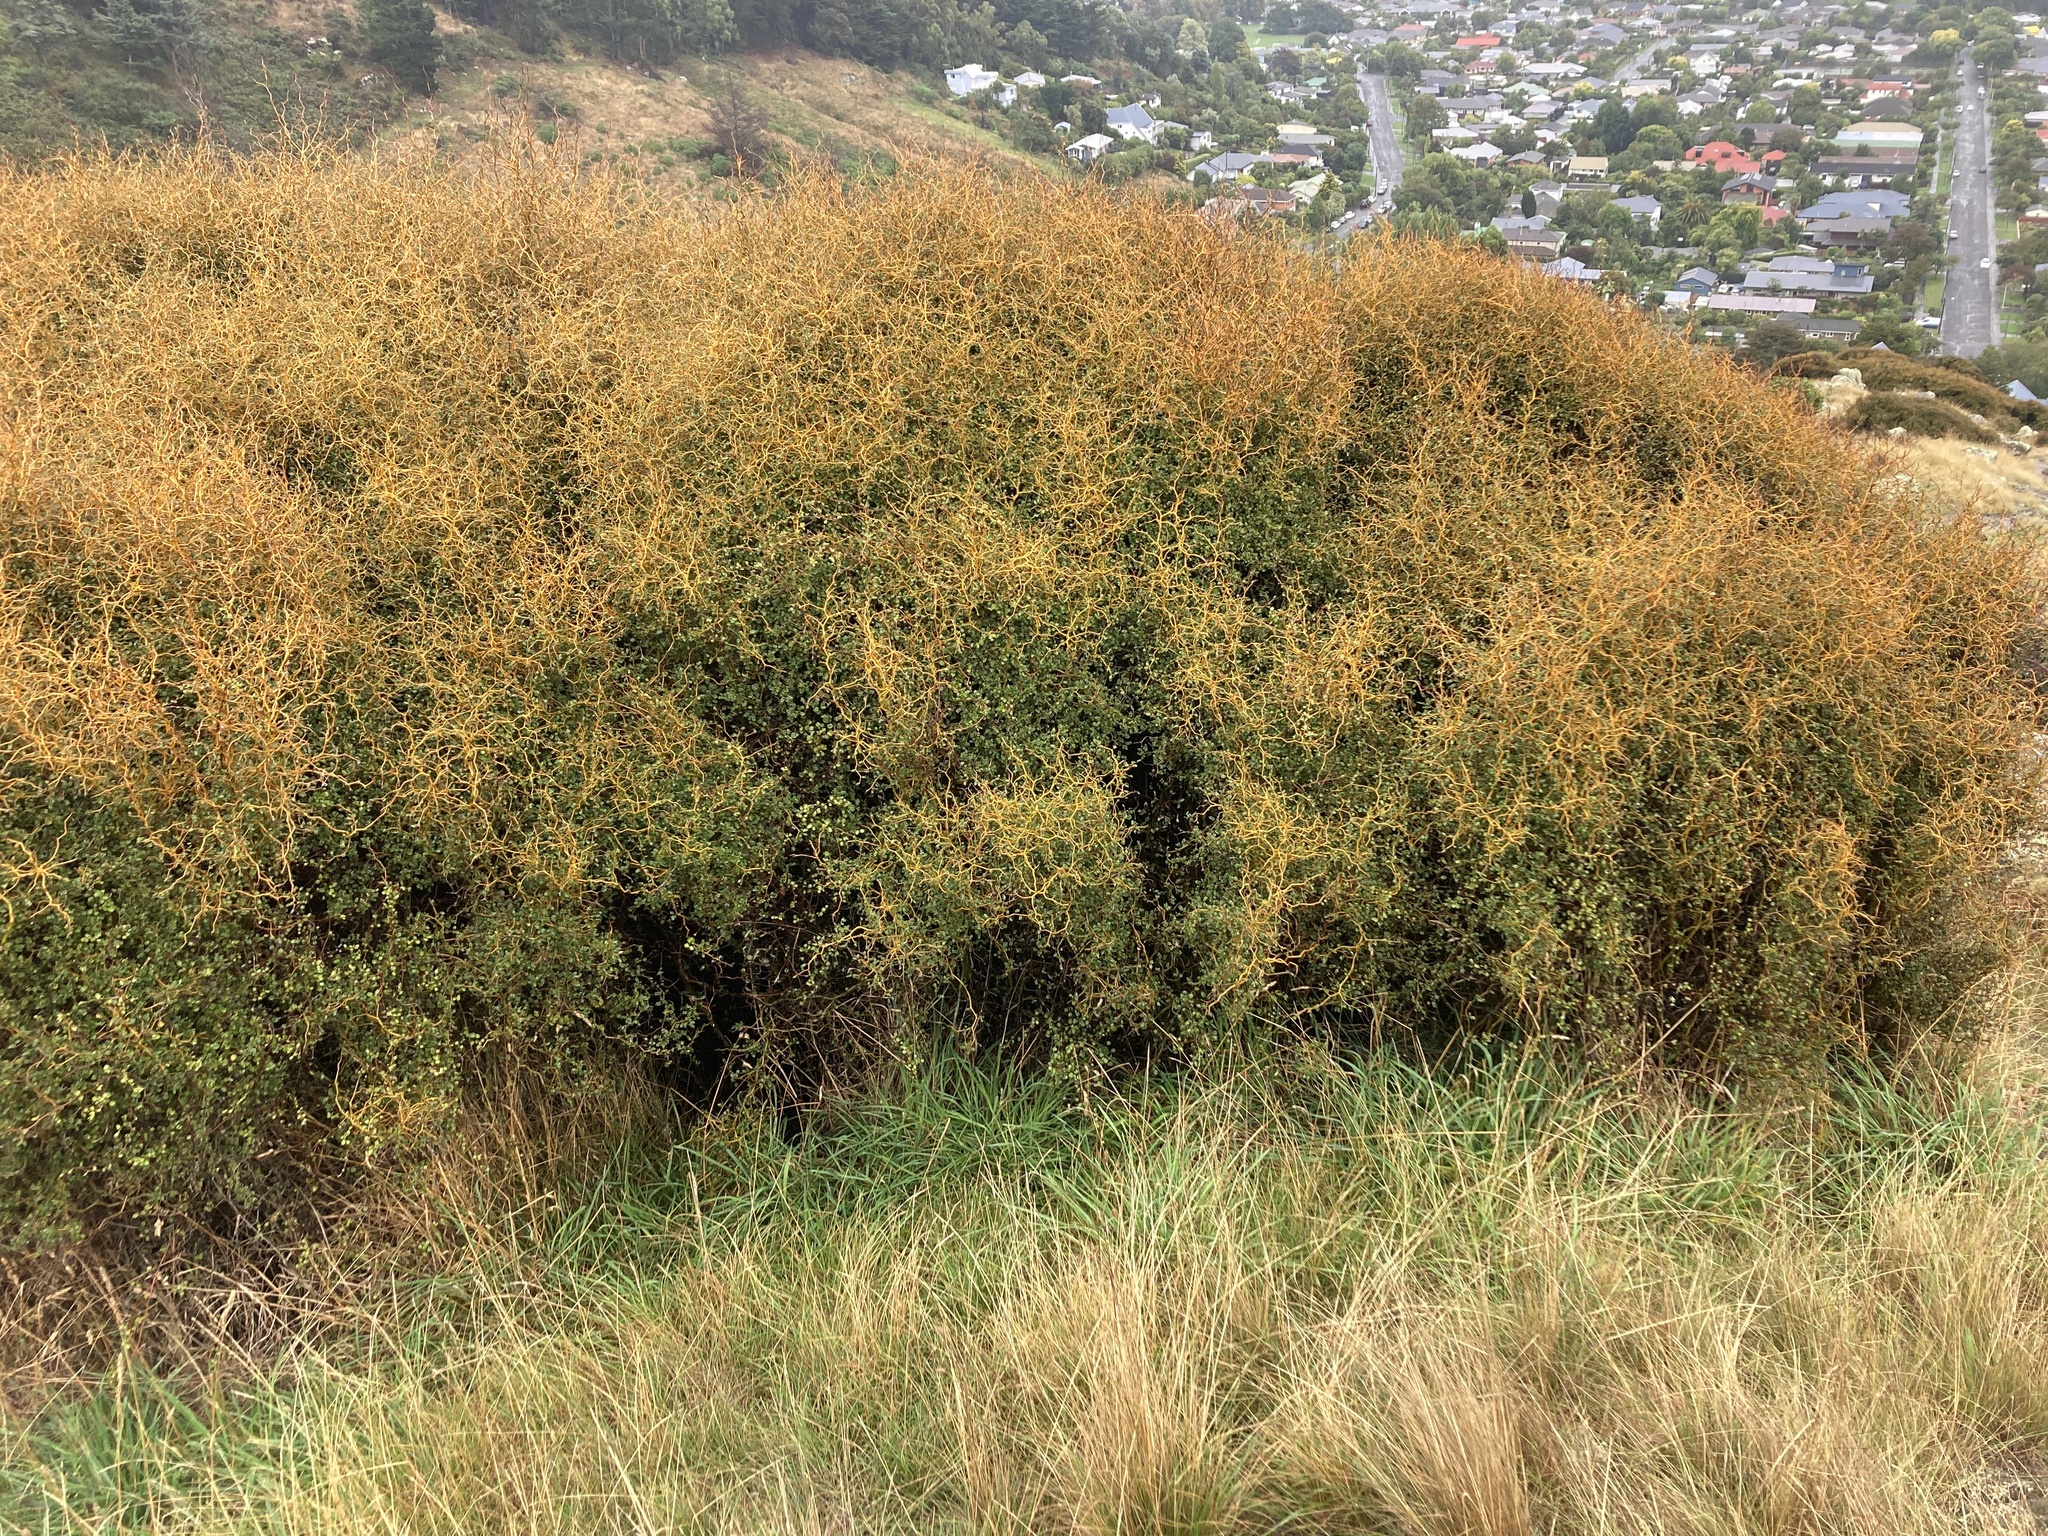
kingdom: Plantae
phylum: Tracheophyta
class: Magnoliopsida
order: Fabales
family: Fabaceae
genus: Sophora
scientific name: Sophora prostrata
